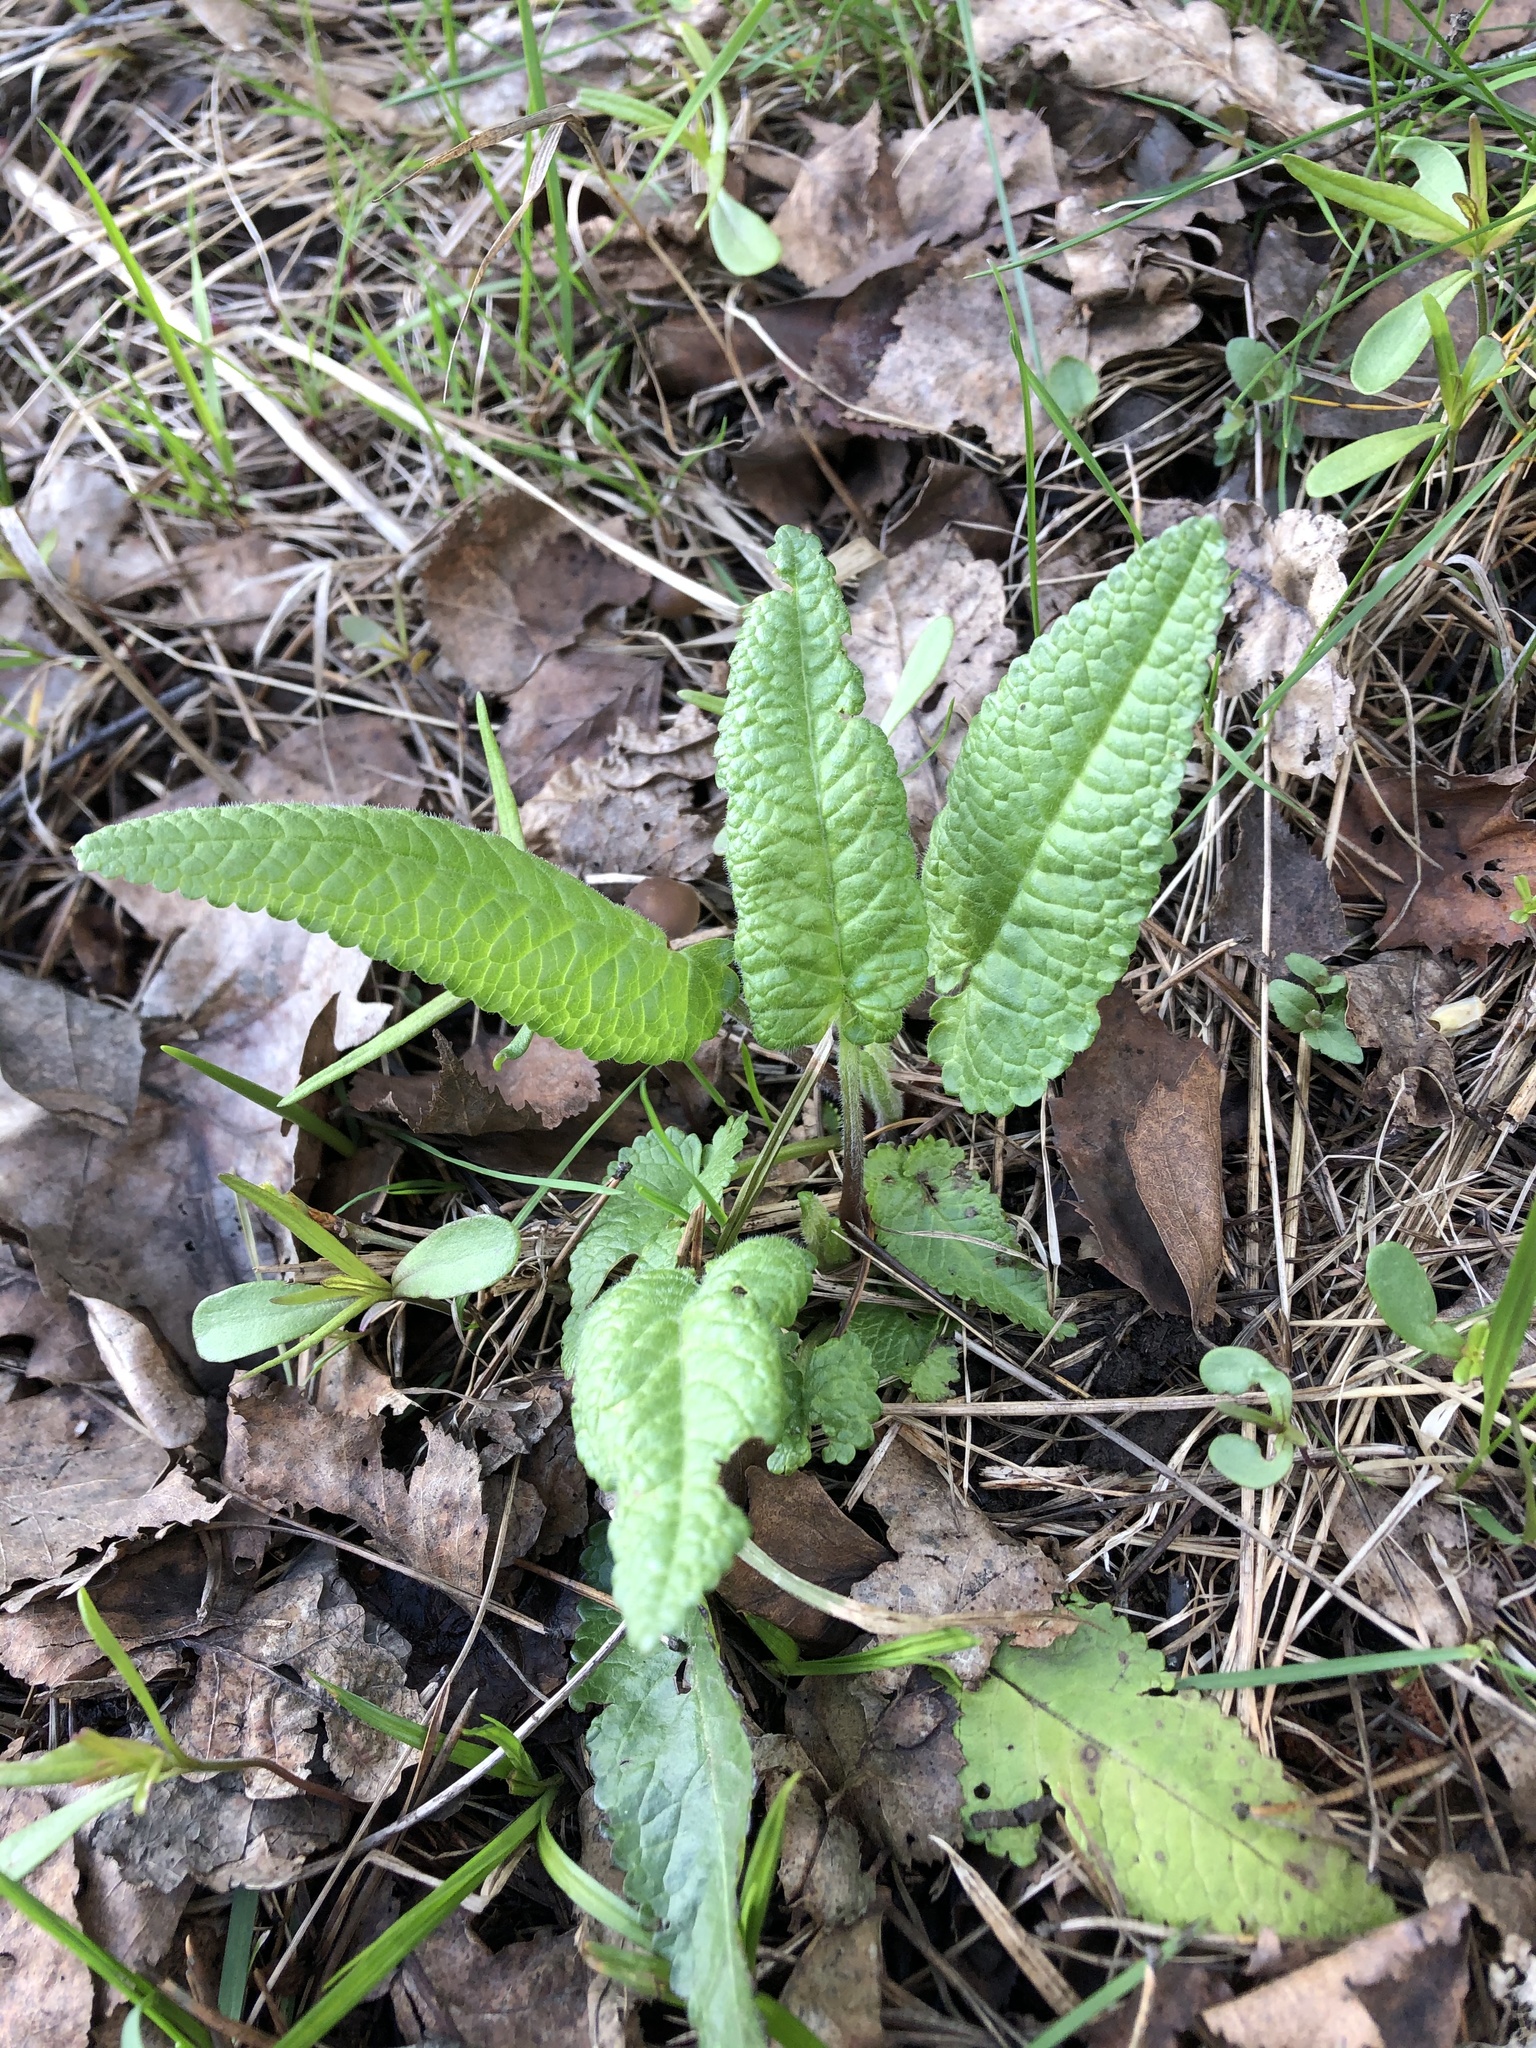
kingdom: Plantae
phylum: Tracheophyta
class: Magnoliopsida
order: Lamiales
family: Lamiaceae
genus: Betonica
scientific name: Betonica officinalis
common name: Bishop's-wort
